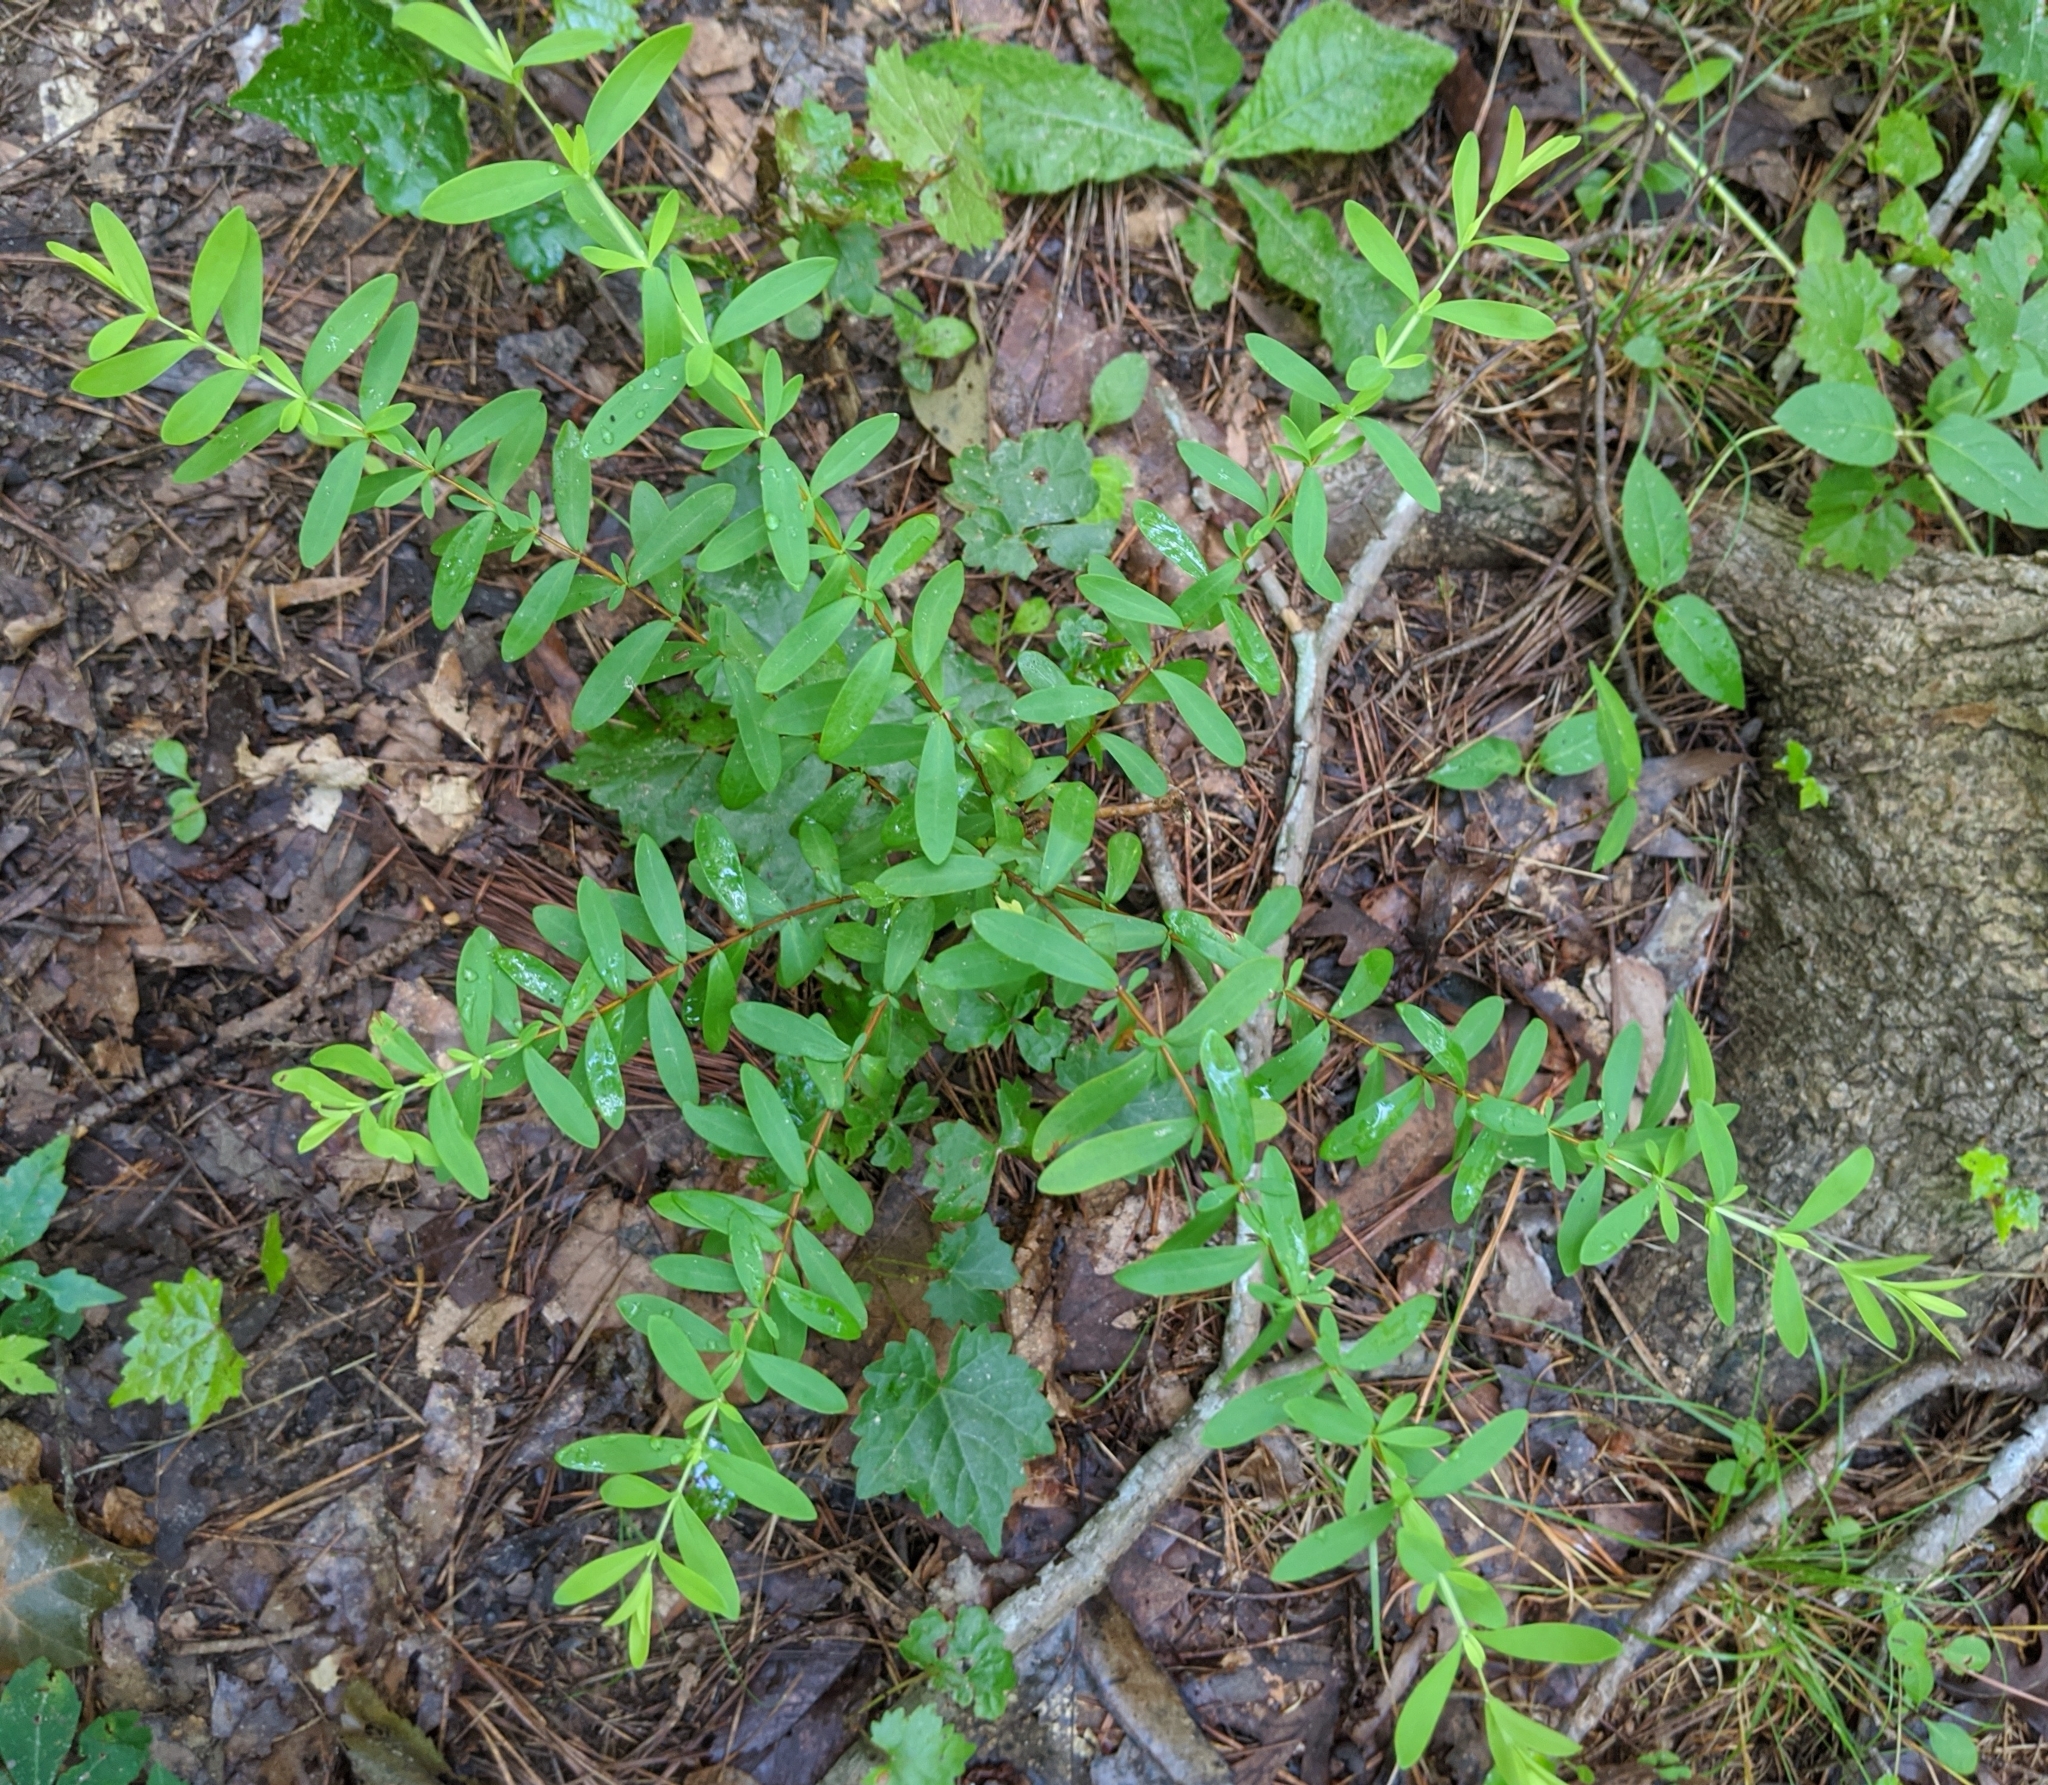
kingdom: Plantae
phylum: Tracheophyta
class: Magnoliopsida
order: Malpighiales
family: Hypericaceae
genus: Hypericum
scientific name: Hypericum hypericoides
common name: St. andrew's cross
